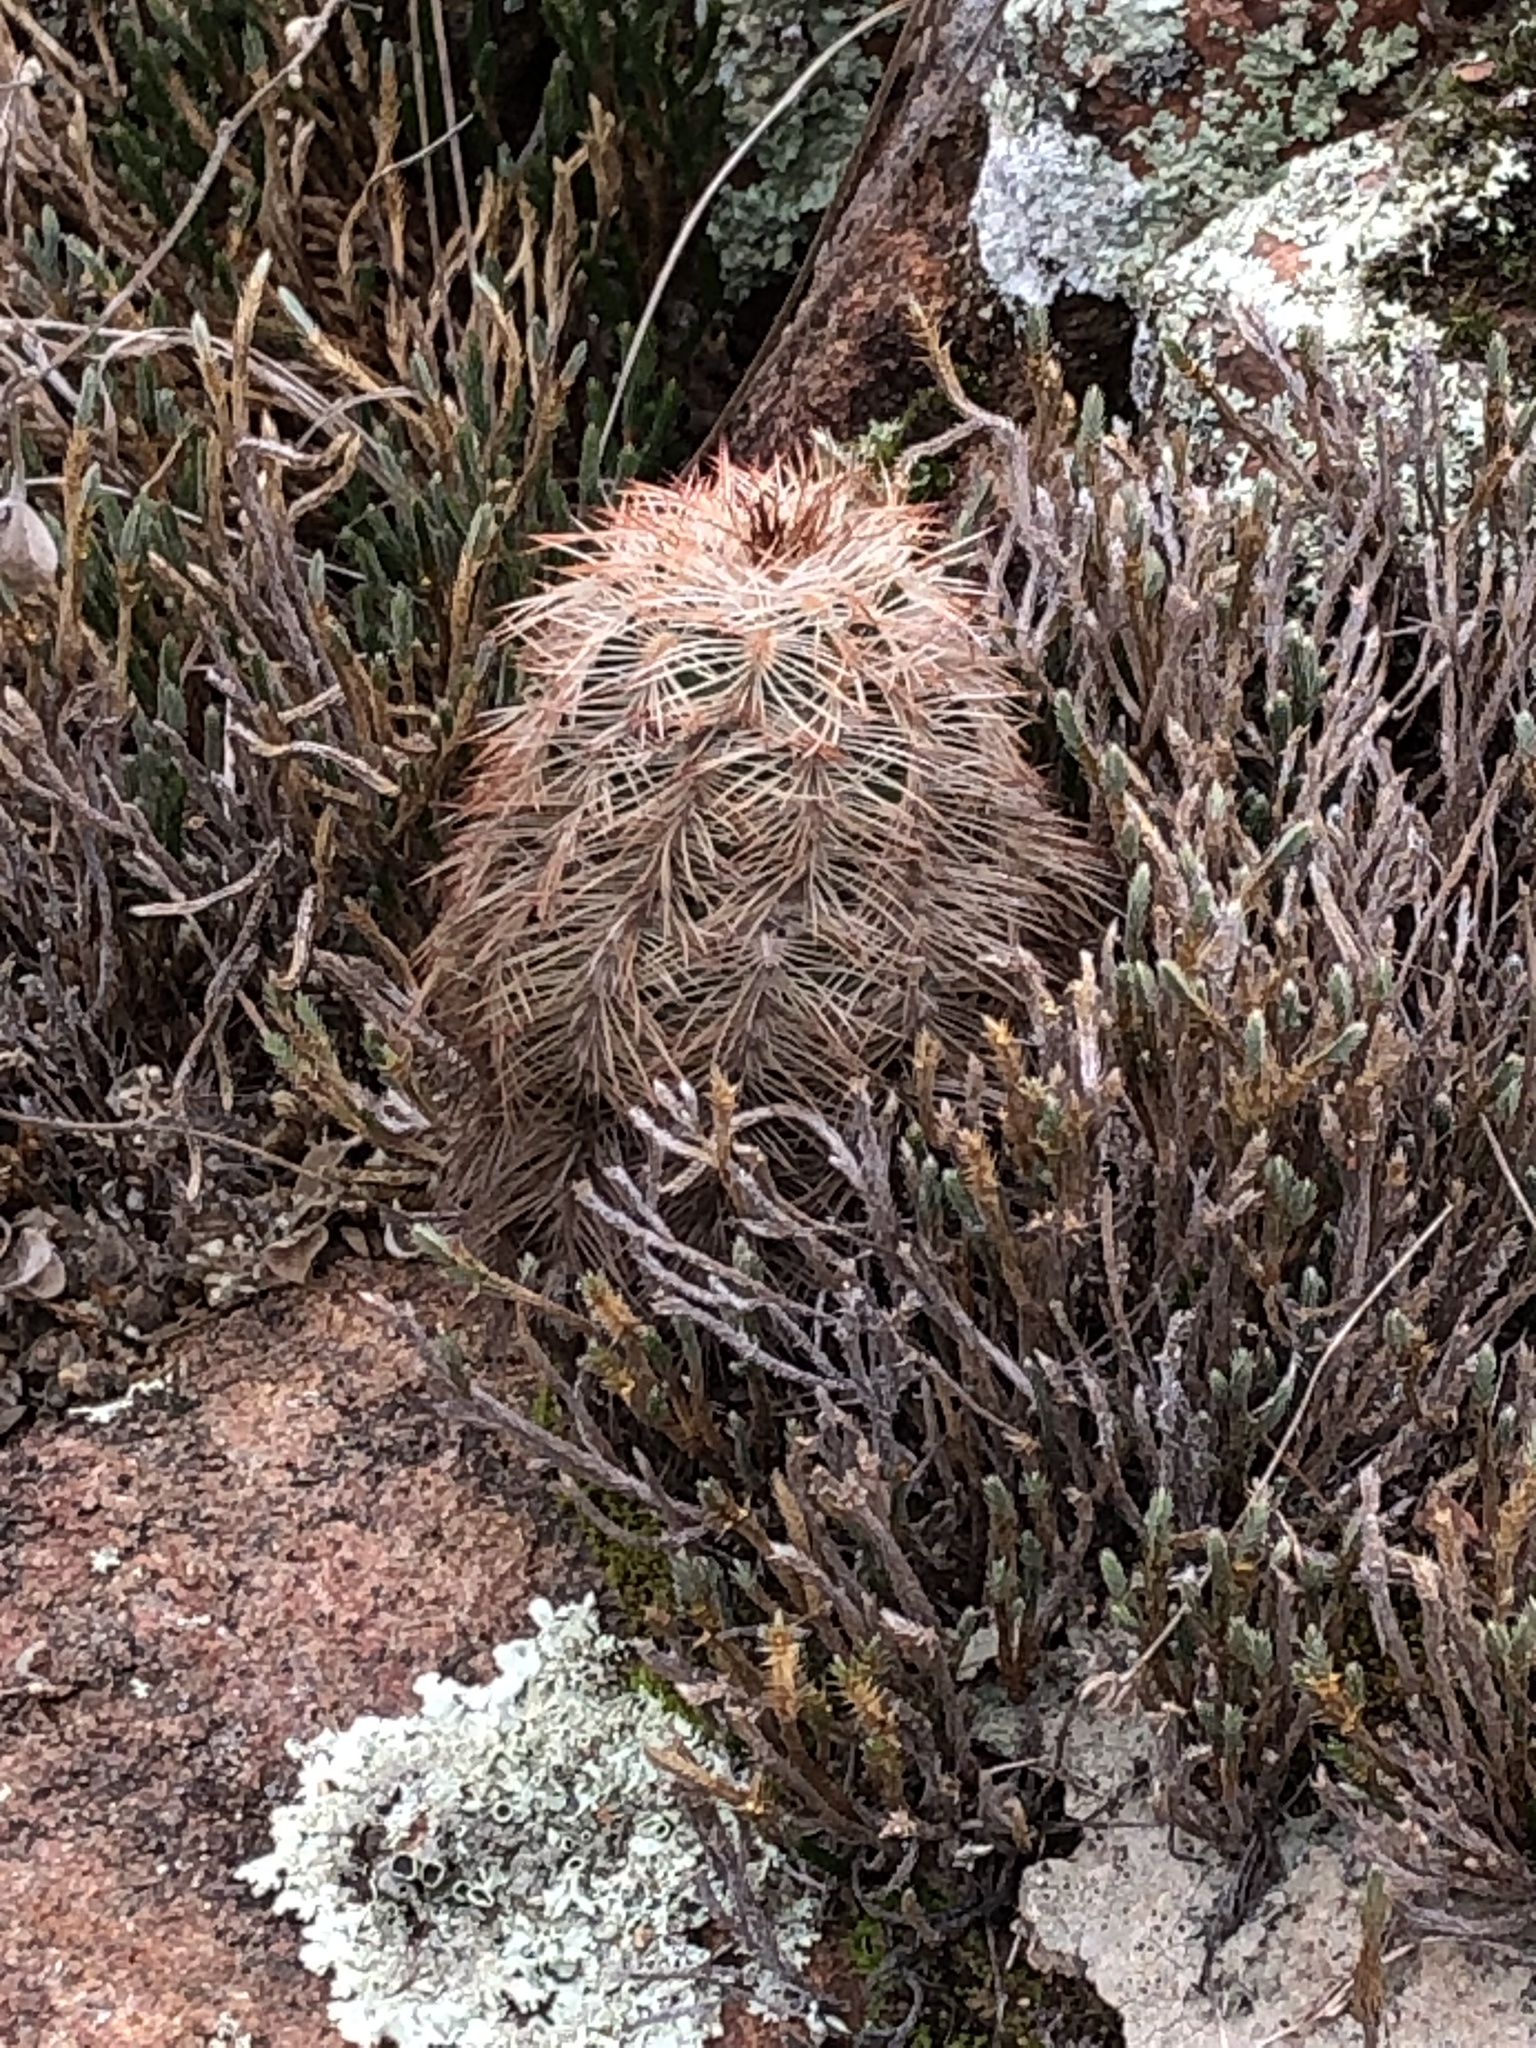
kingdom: Plantae
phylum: Tracheophyta
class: Magnoliopsida
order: Caryophyllales
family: Cactaceae
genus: Echinocereus
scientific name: Echinocereus reichenbachii
